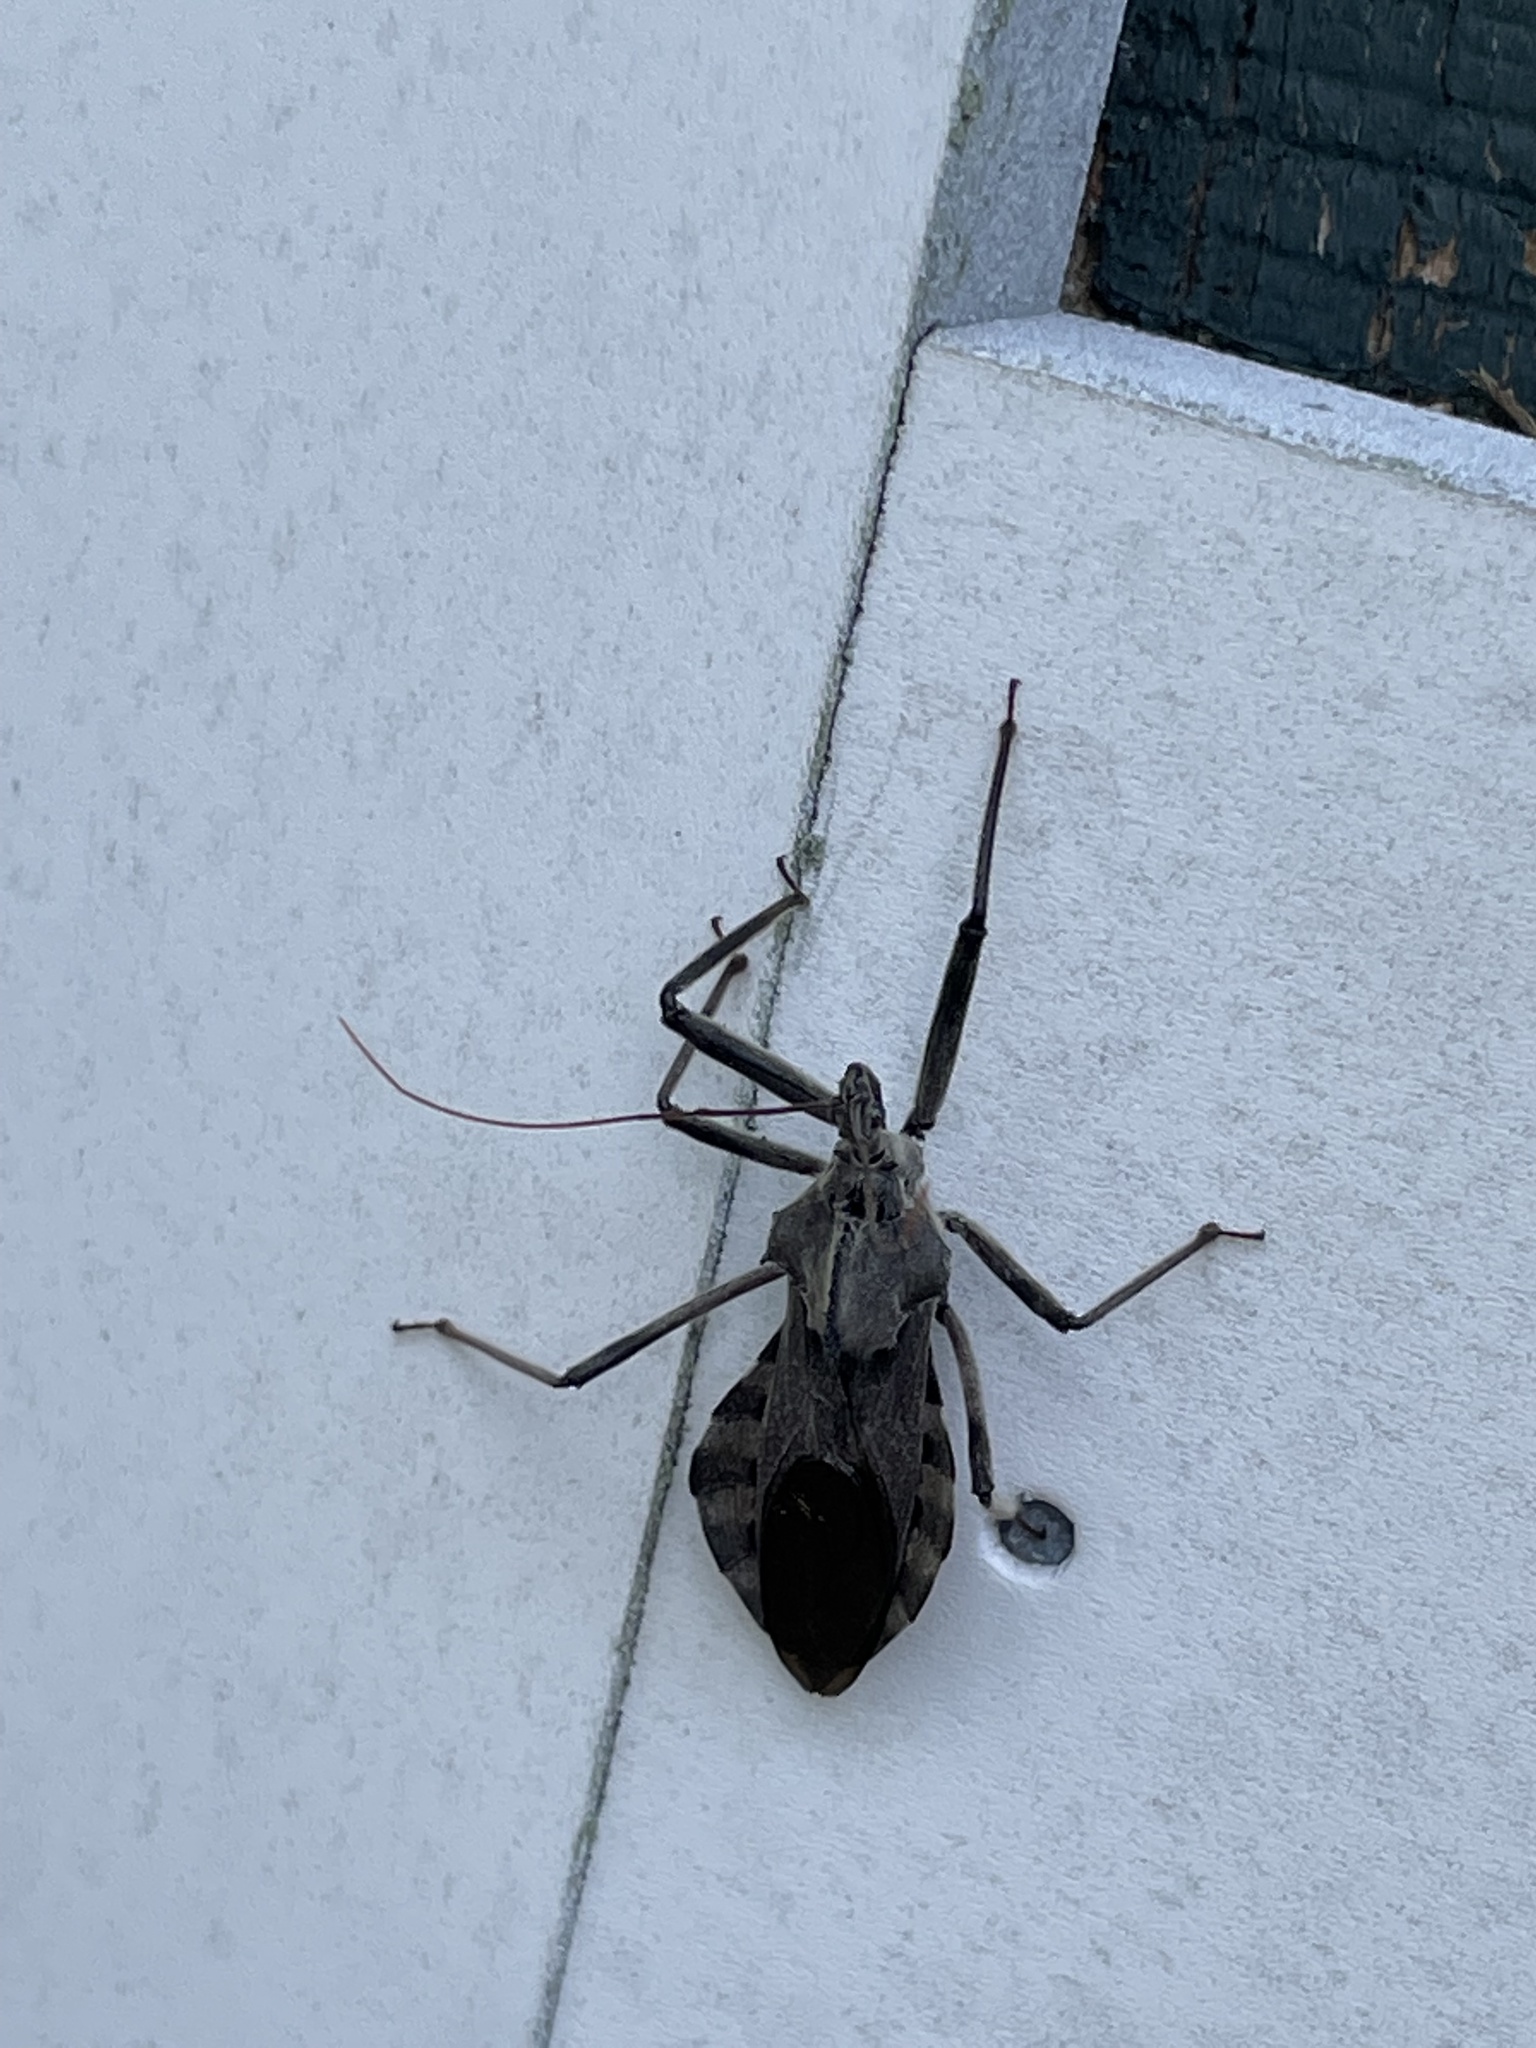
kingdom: Animalia
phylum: Arthropoda
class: Insecta
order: Hemiptera
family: Reduviidae
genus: Arilus
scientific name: Arilus cristatus
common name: North american wheel bug
